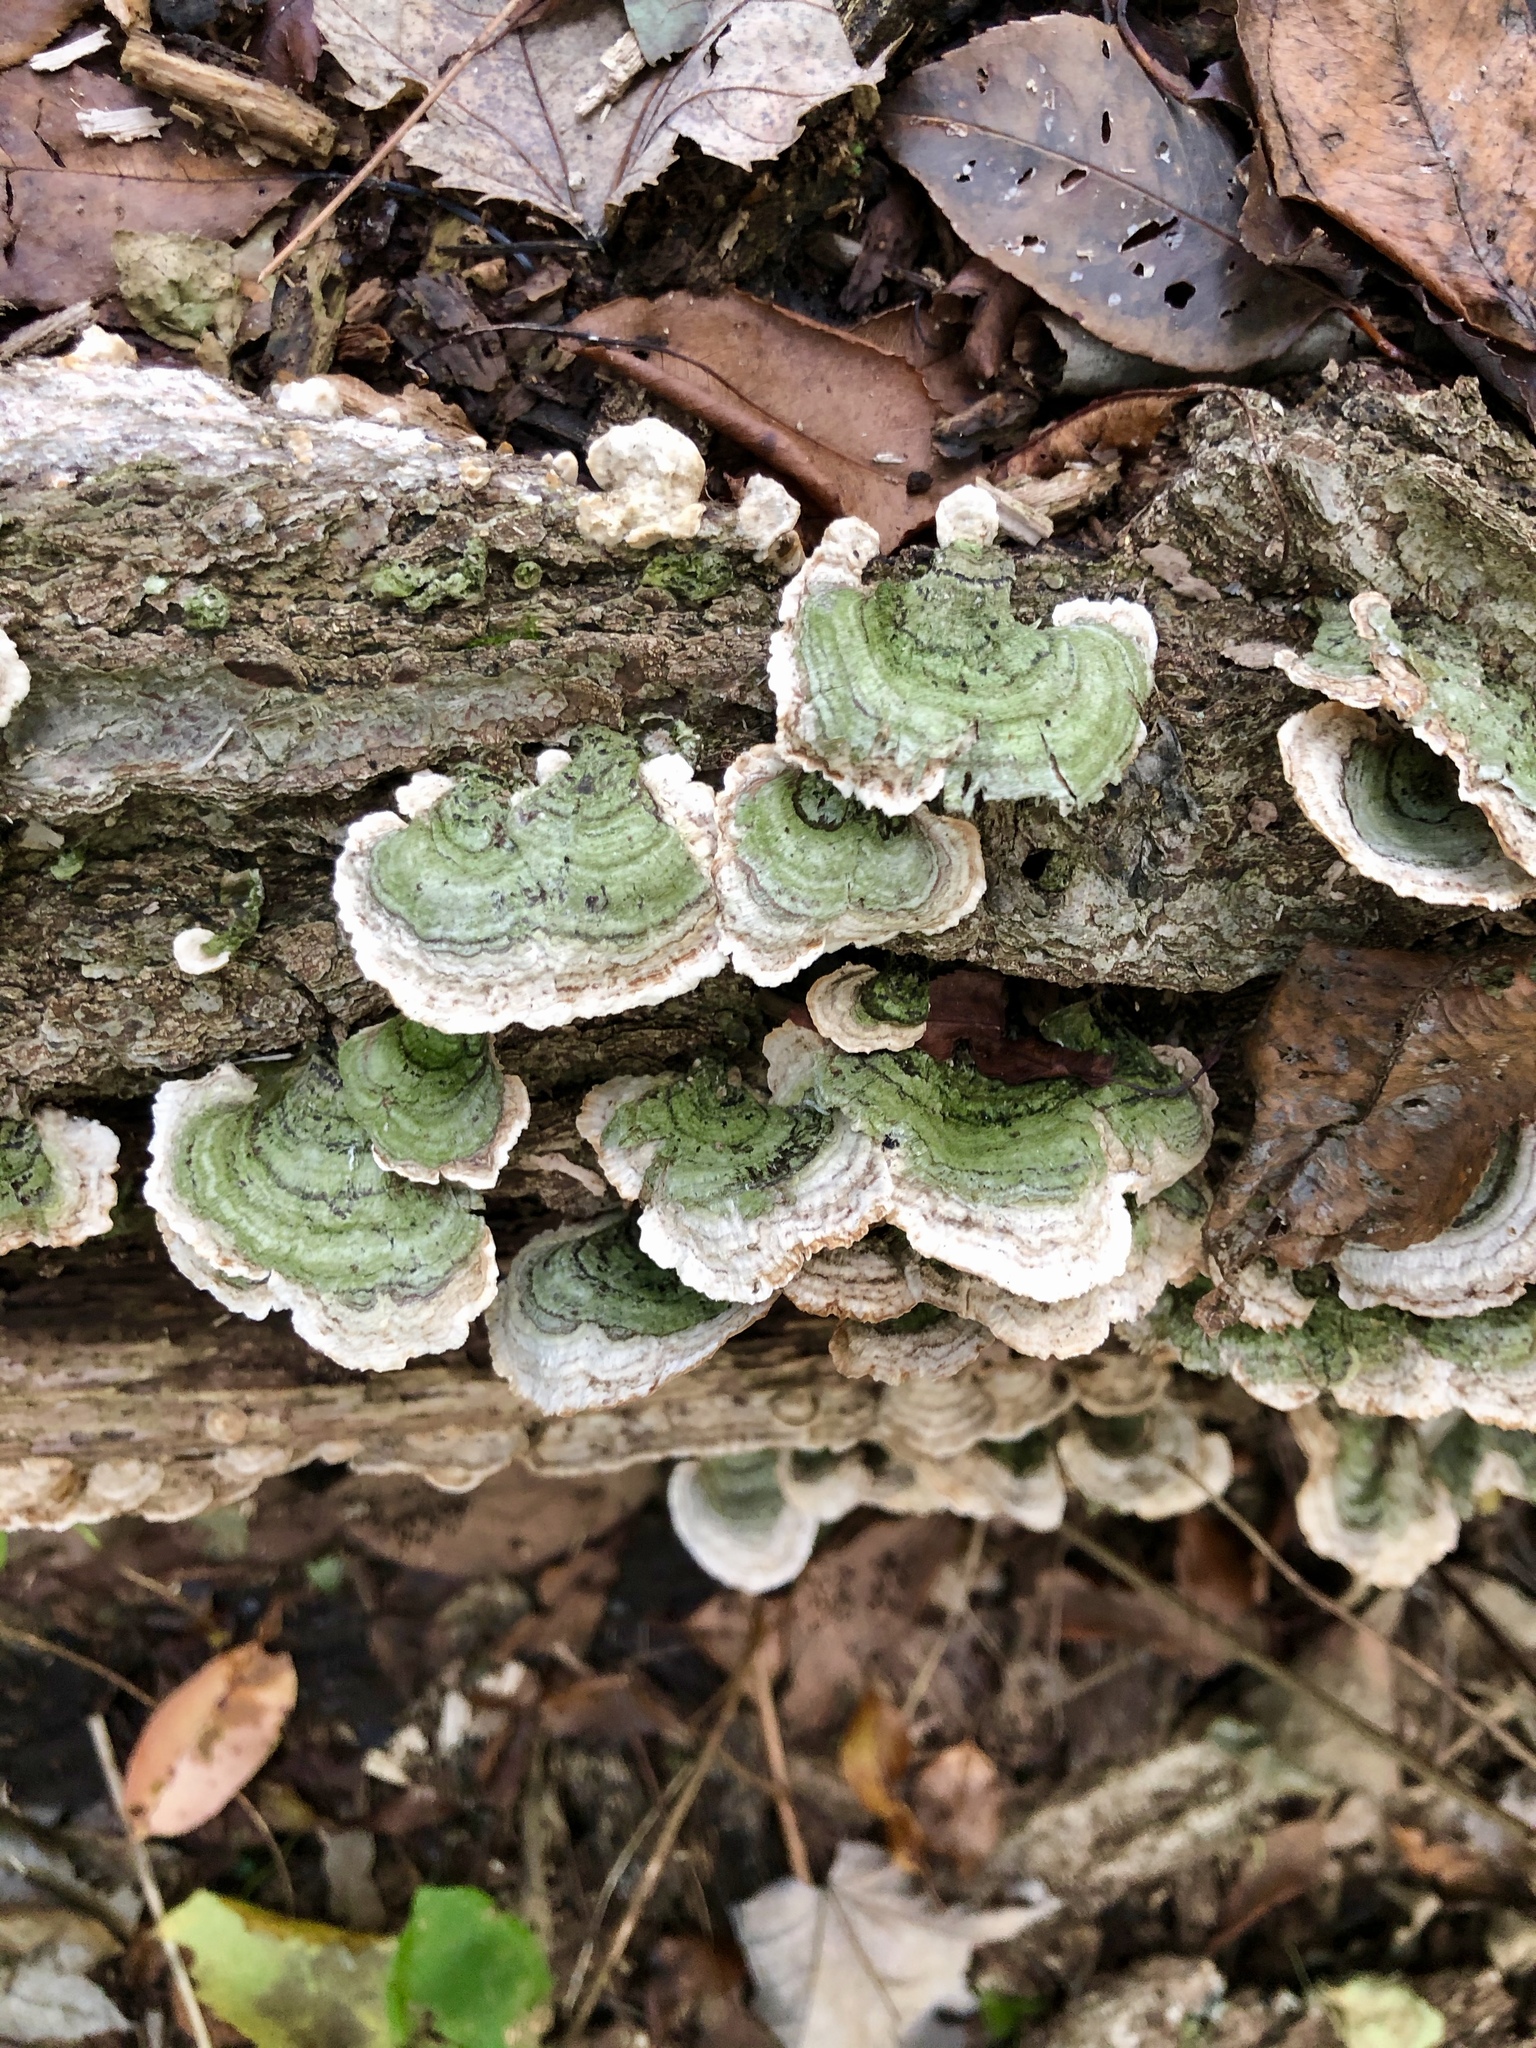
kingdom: Fungi
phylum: Basidiomycota
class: Agaricomycetes
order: Russulales
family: Stereaceae
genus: Stereum
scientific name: Stereum ostrea
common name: False turkeytail
